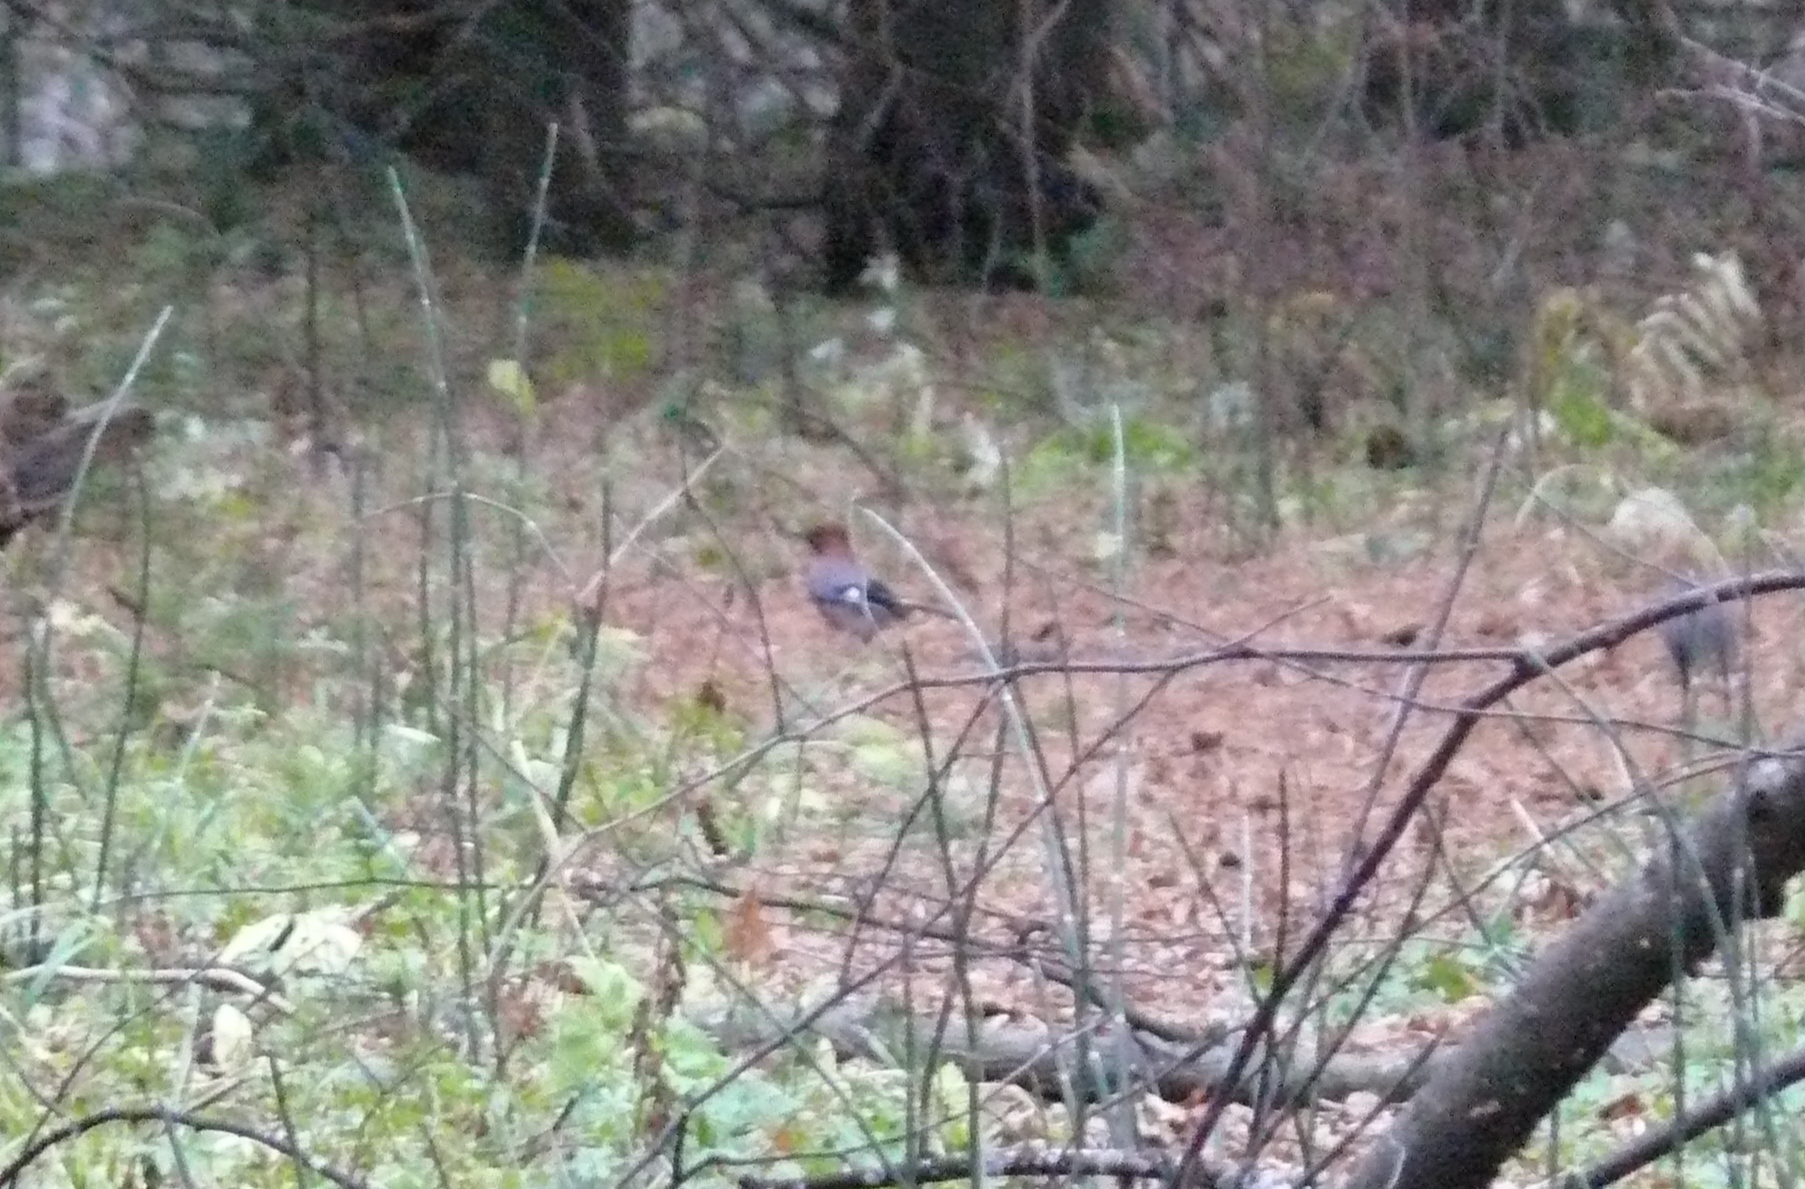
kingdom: Animalia
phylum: Chordata
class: Aves
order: Passeriformes
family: Corvidae
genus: Garrulus
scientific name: Garrulus glandarius
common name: Eurasian jay
